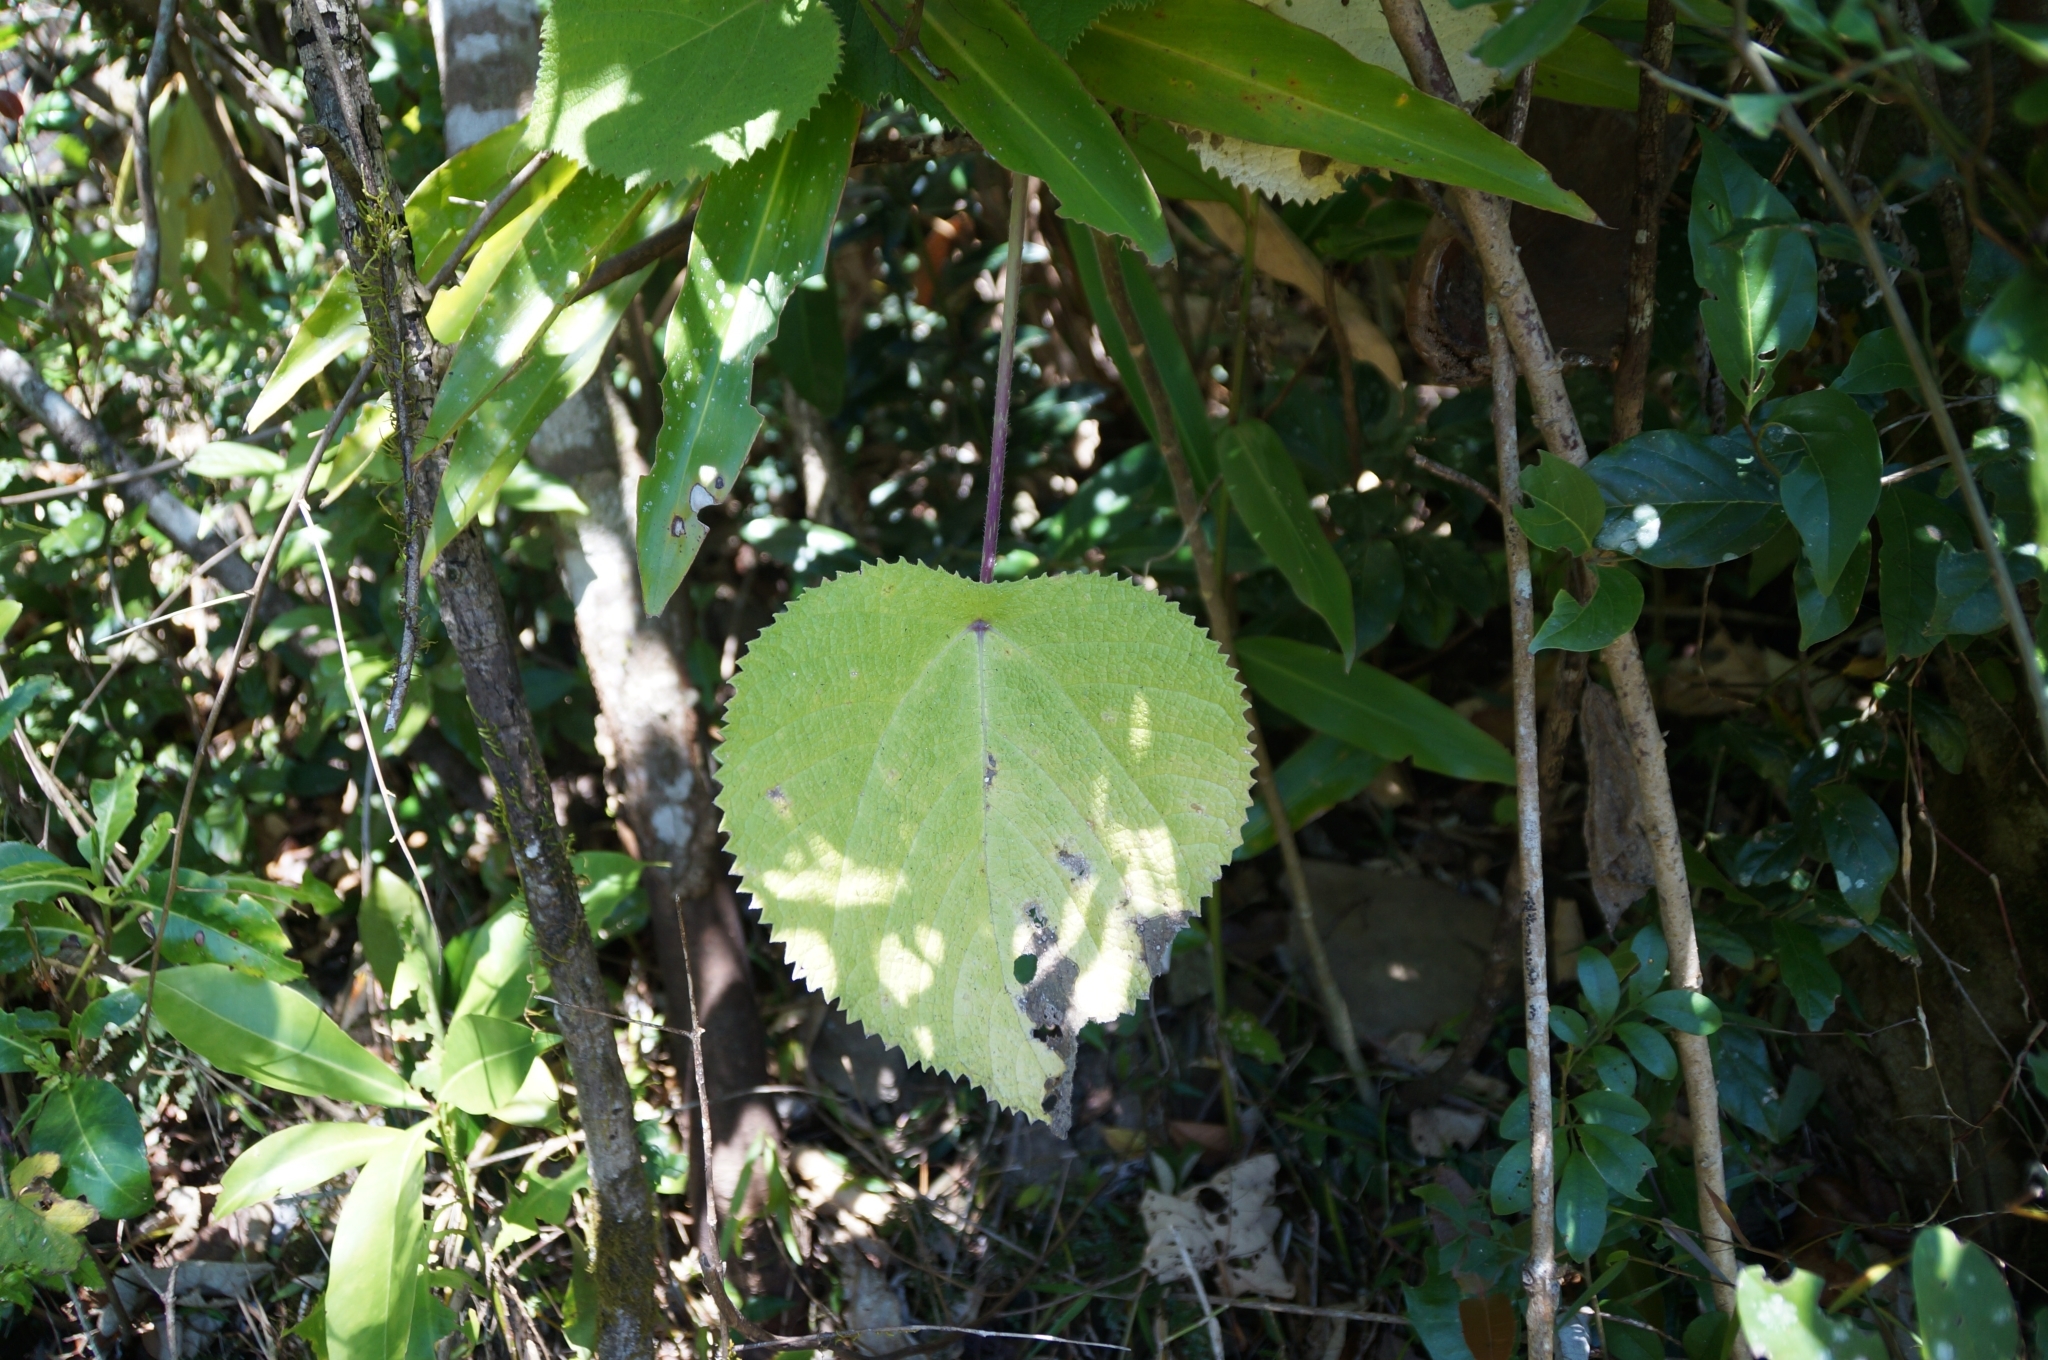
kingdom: Plantae
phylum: Tracheophyta
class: Magnoliopsida
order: Rosales
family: Urticaceae
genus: Dendrocnide
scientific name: Dendrocnide moroides
